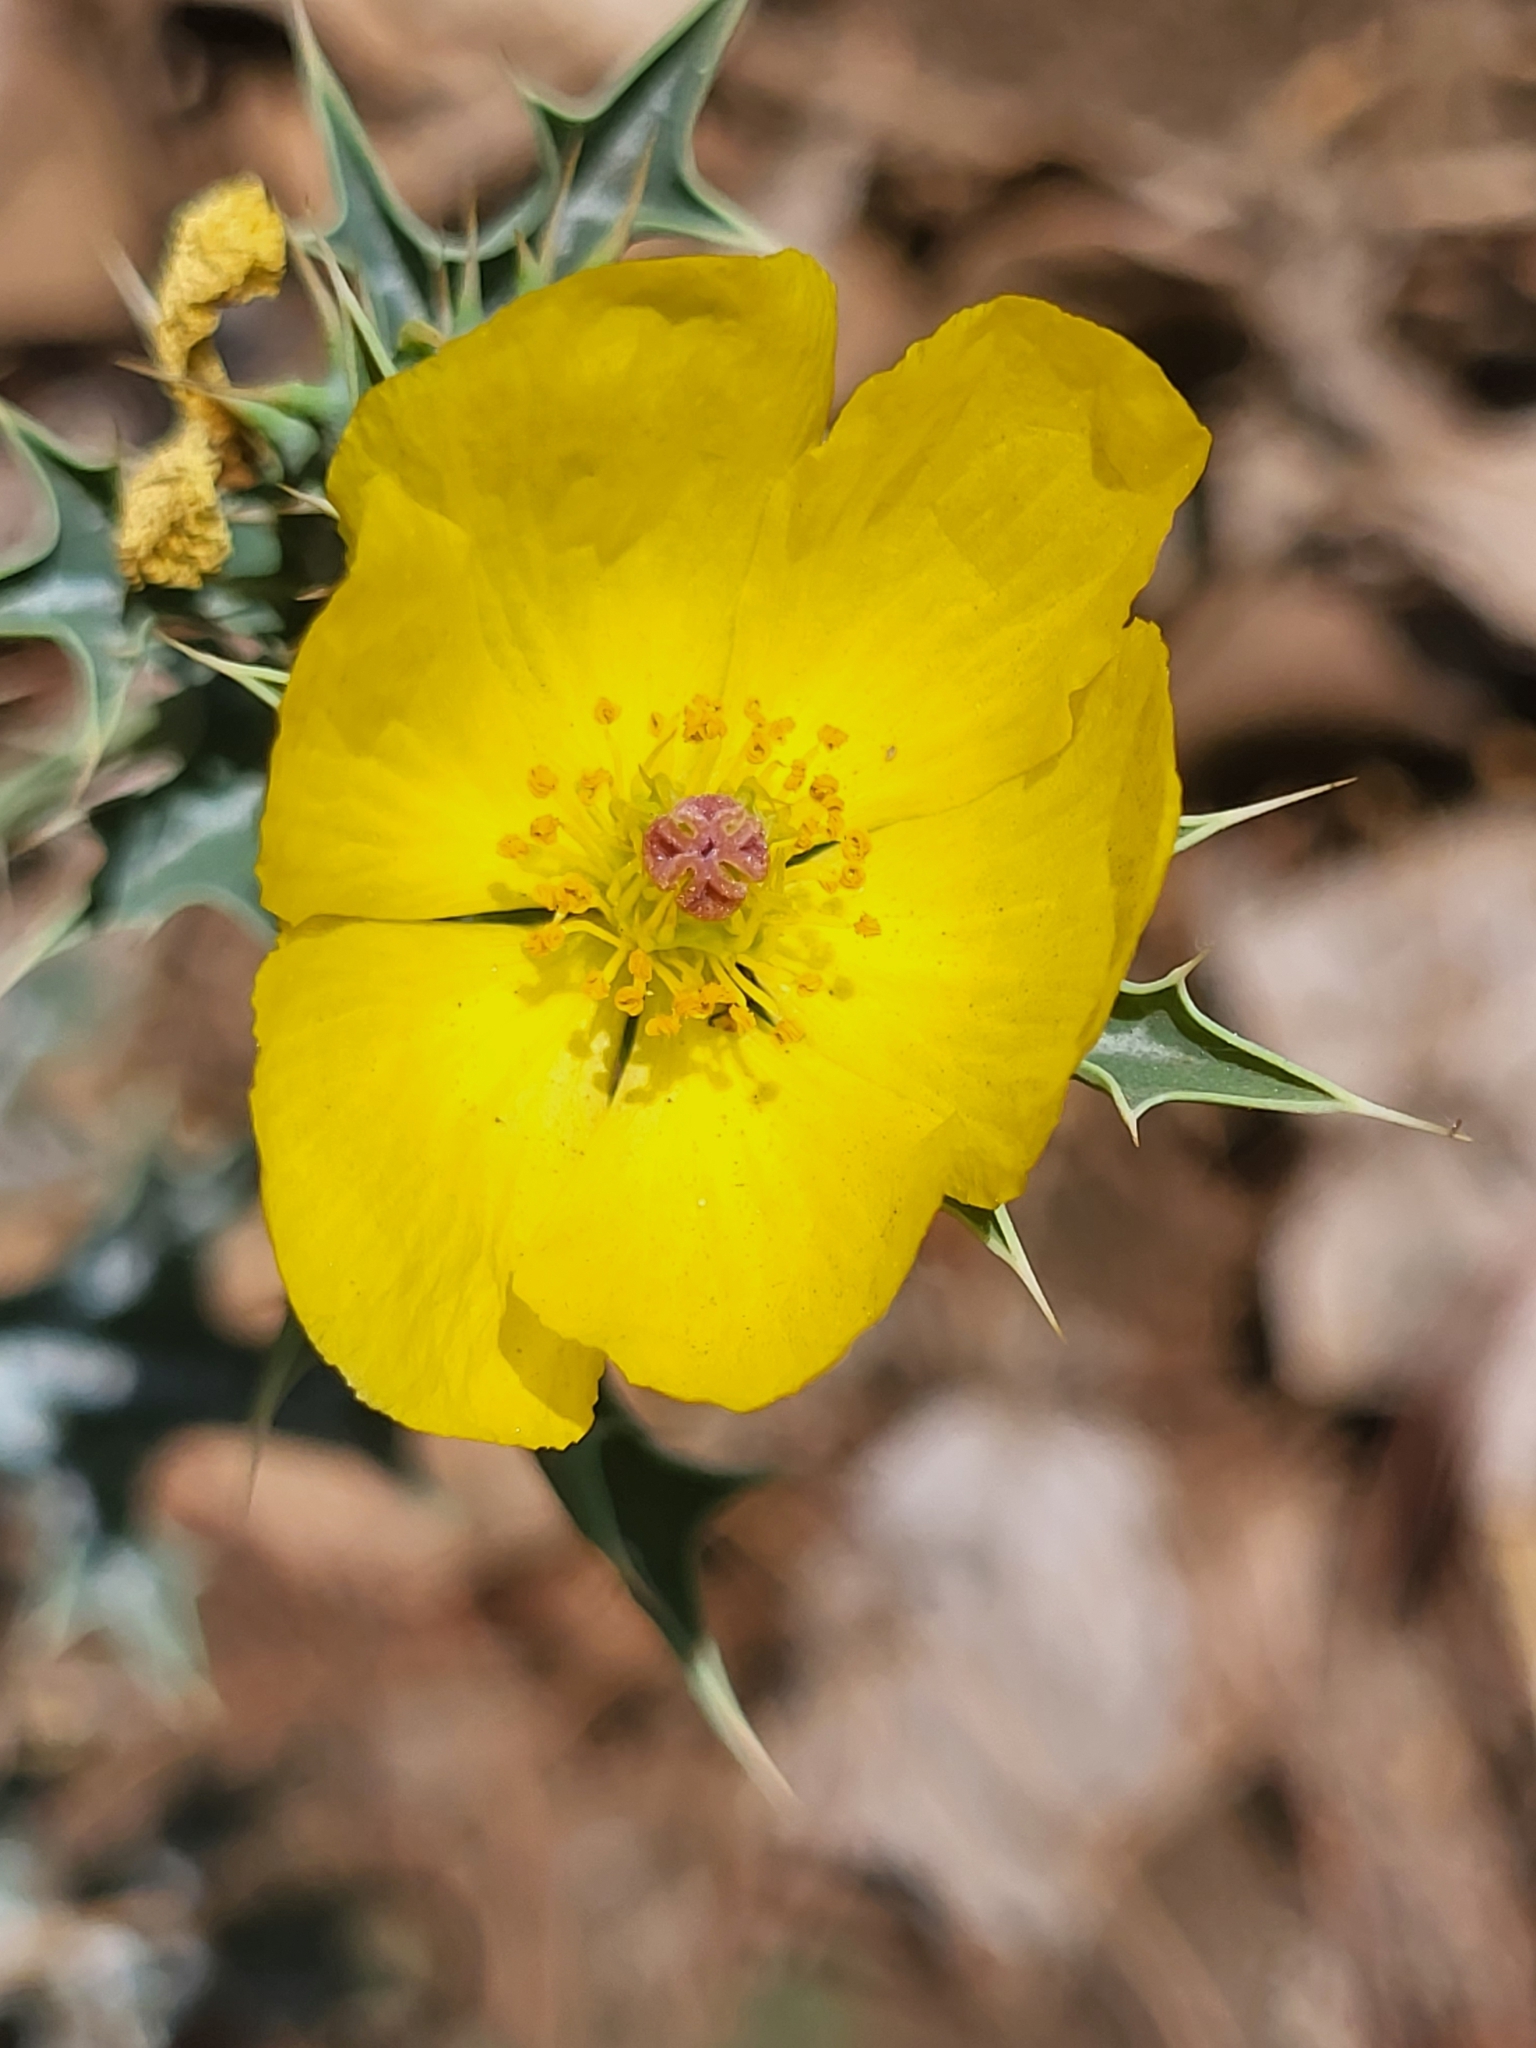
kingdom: Plantae
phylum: Tracheophyta
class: Magnoliopsida
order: Ranunculales
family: Papaveraceae
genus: Argemone
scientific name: Argemone mexicana
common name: Mexican poppy
